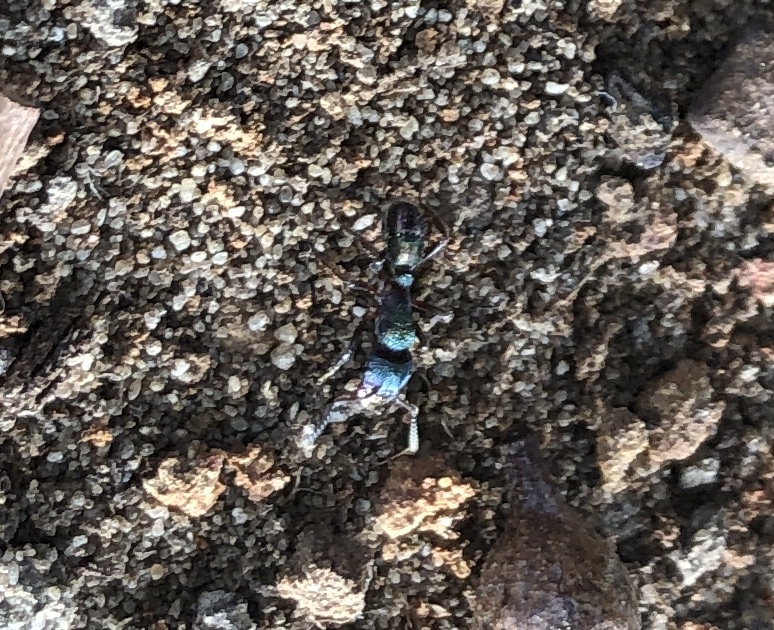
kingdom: Animalia
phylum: Arthropoda
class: Insecta
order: Hymenoptera
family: Formicidae
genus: Rhytidoponera
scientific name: Rhytidoponera metallica
